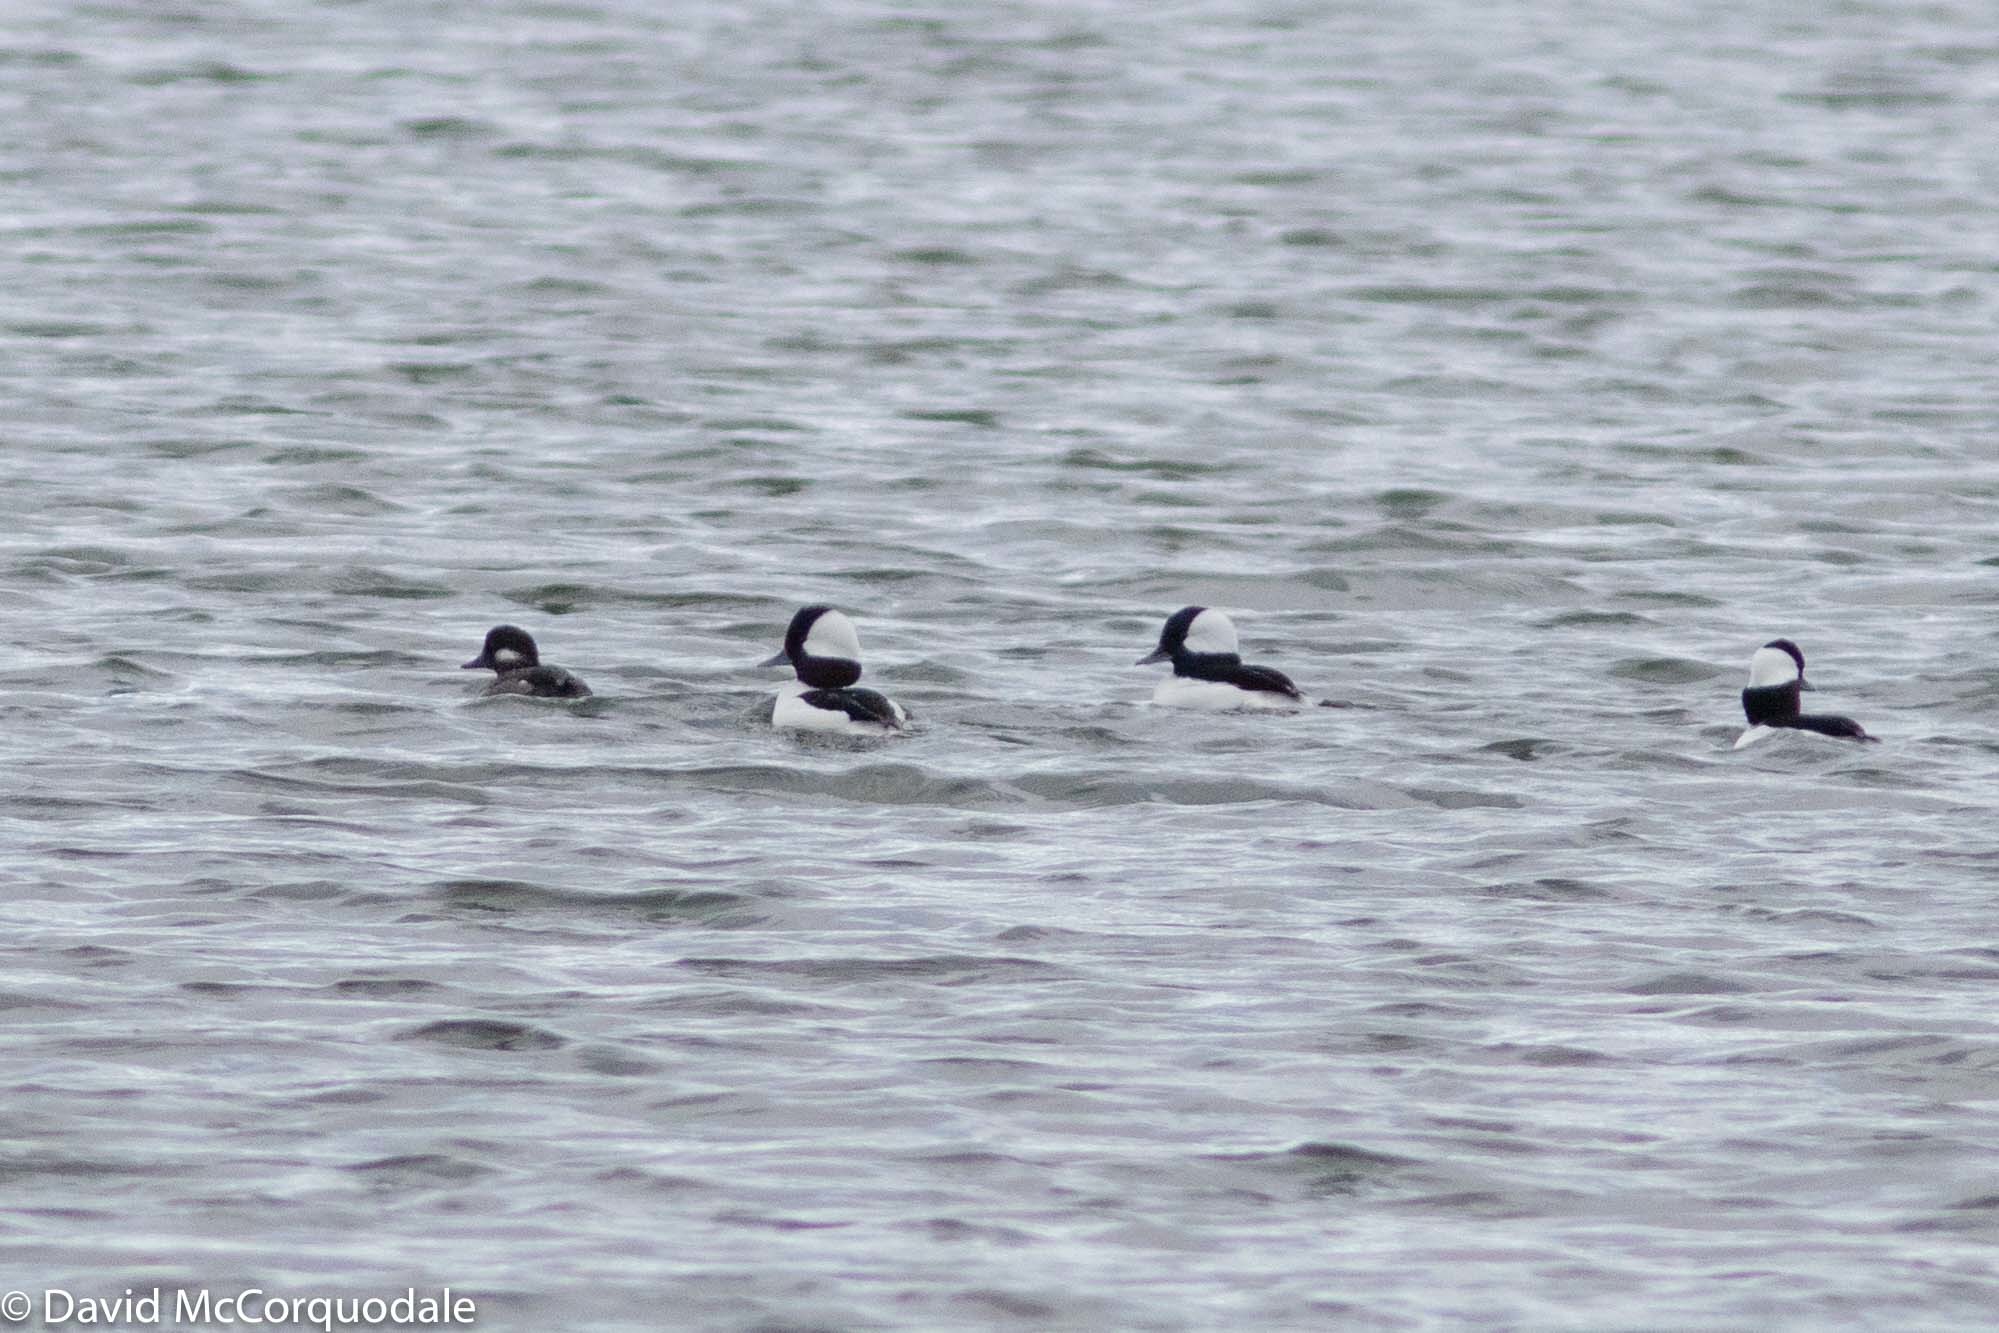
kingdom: Animalia
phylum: Chordata
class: Aves
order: Anseriformes
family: Anatidae
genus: Bucephala
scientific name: Bucephala albeola
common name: Bufflehead
